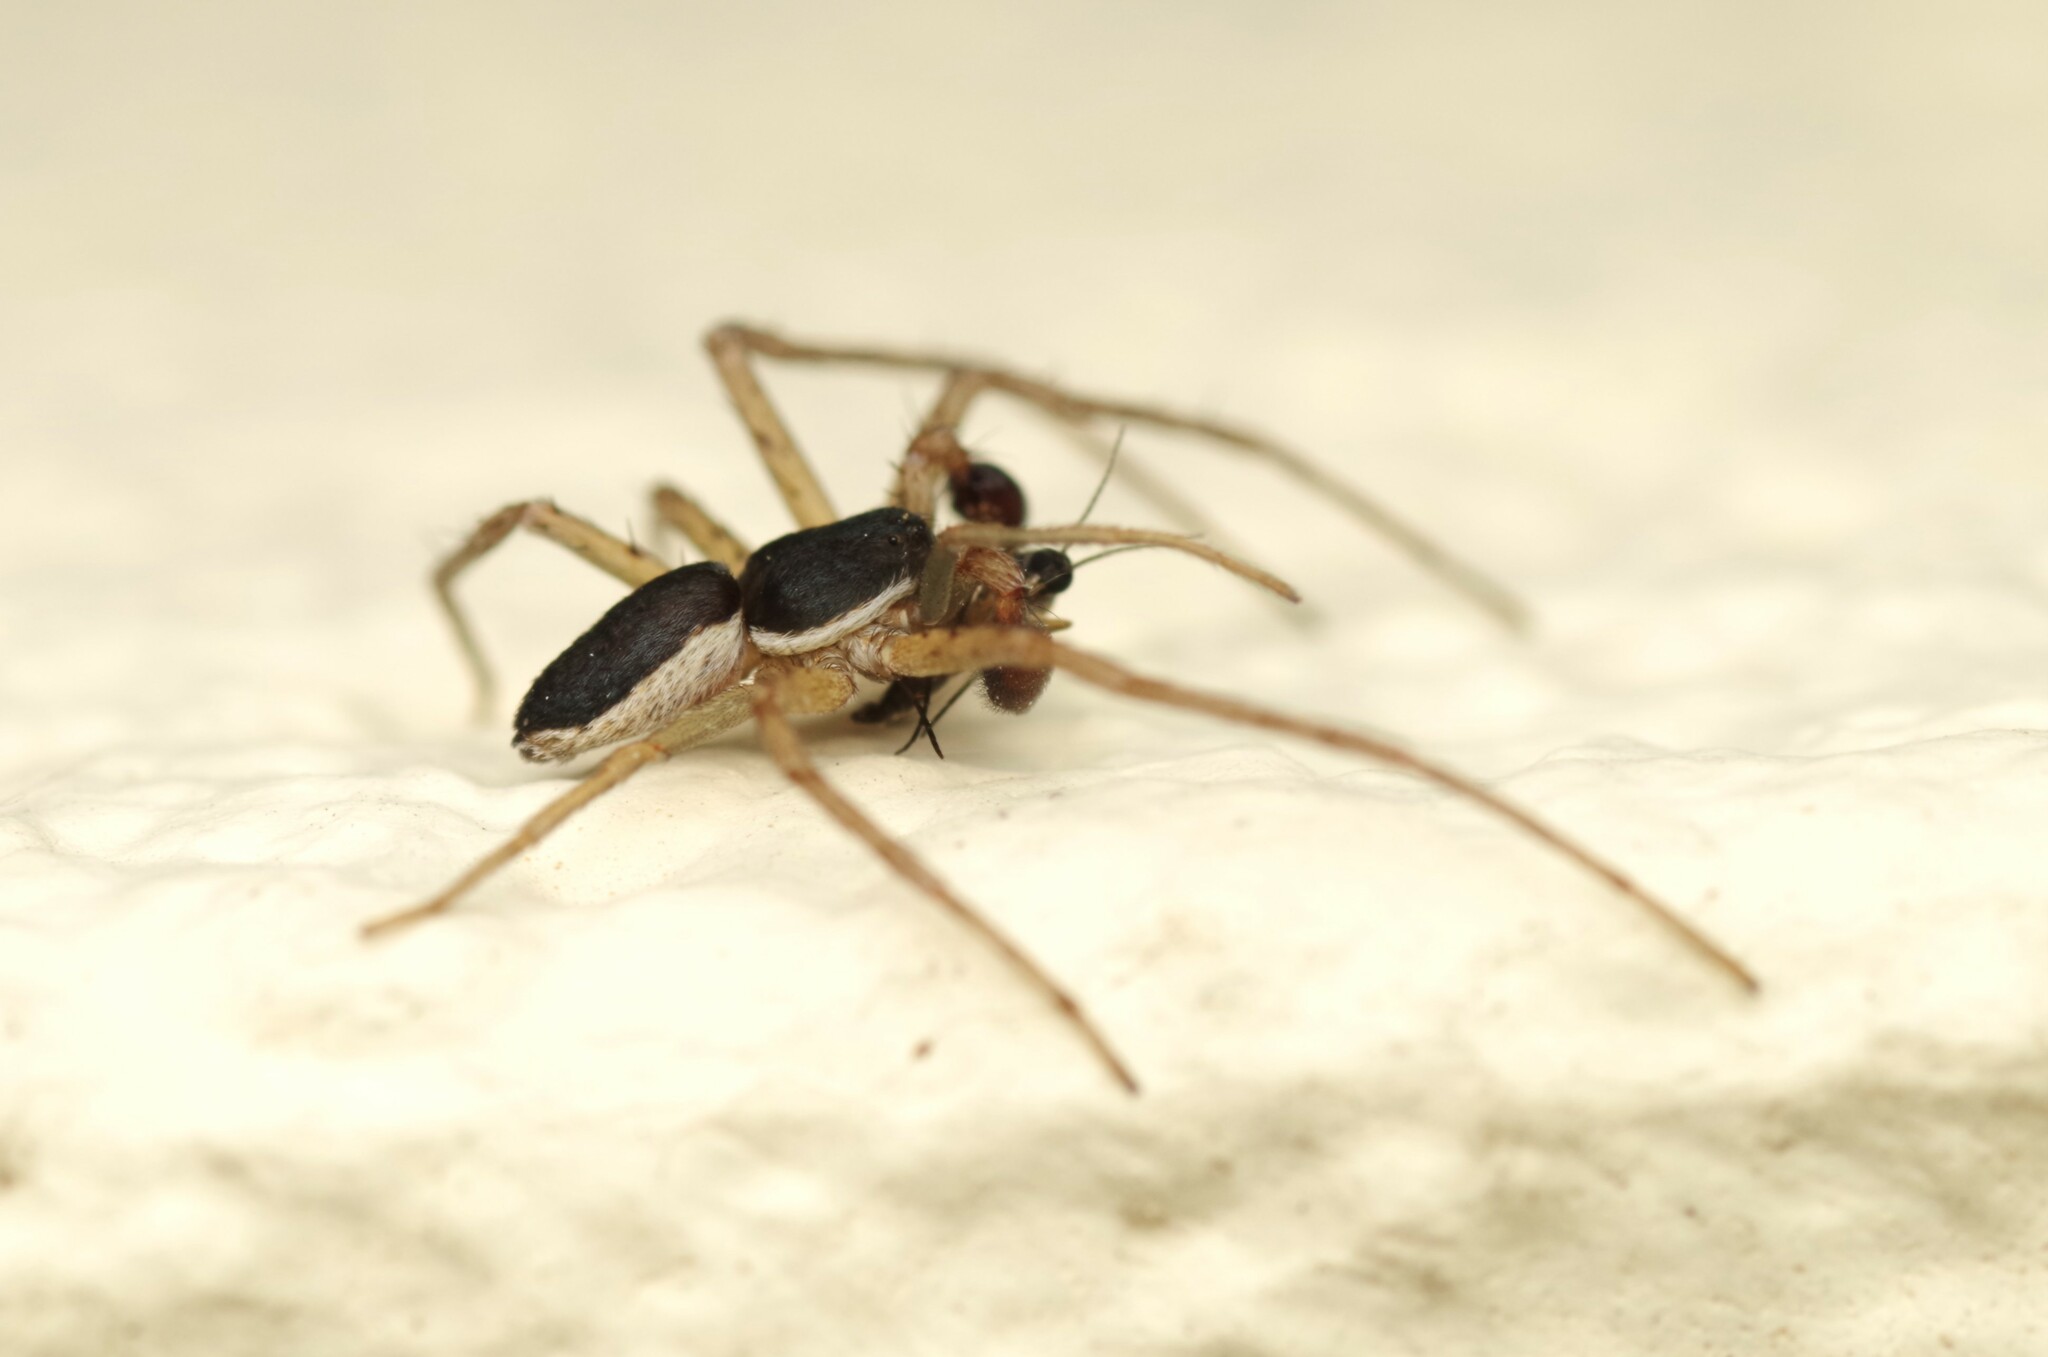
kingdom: Animalia
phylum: Arthropoda
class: Arachnida
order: Araneae
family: Philodromidae
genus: Philodromus
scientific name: Philodromus dispar
